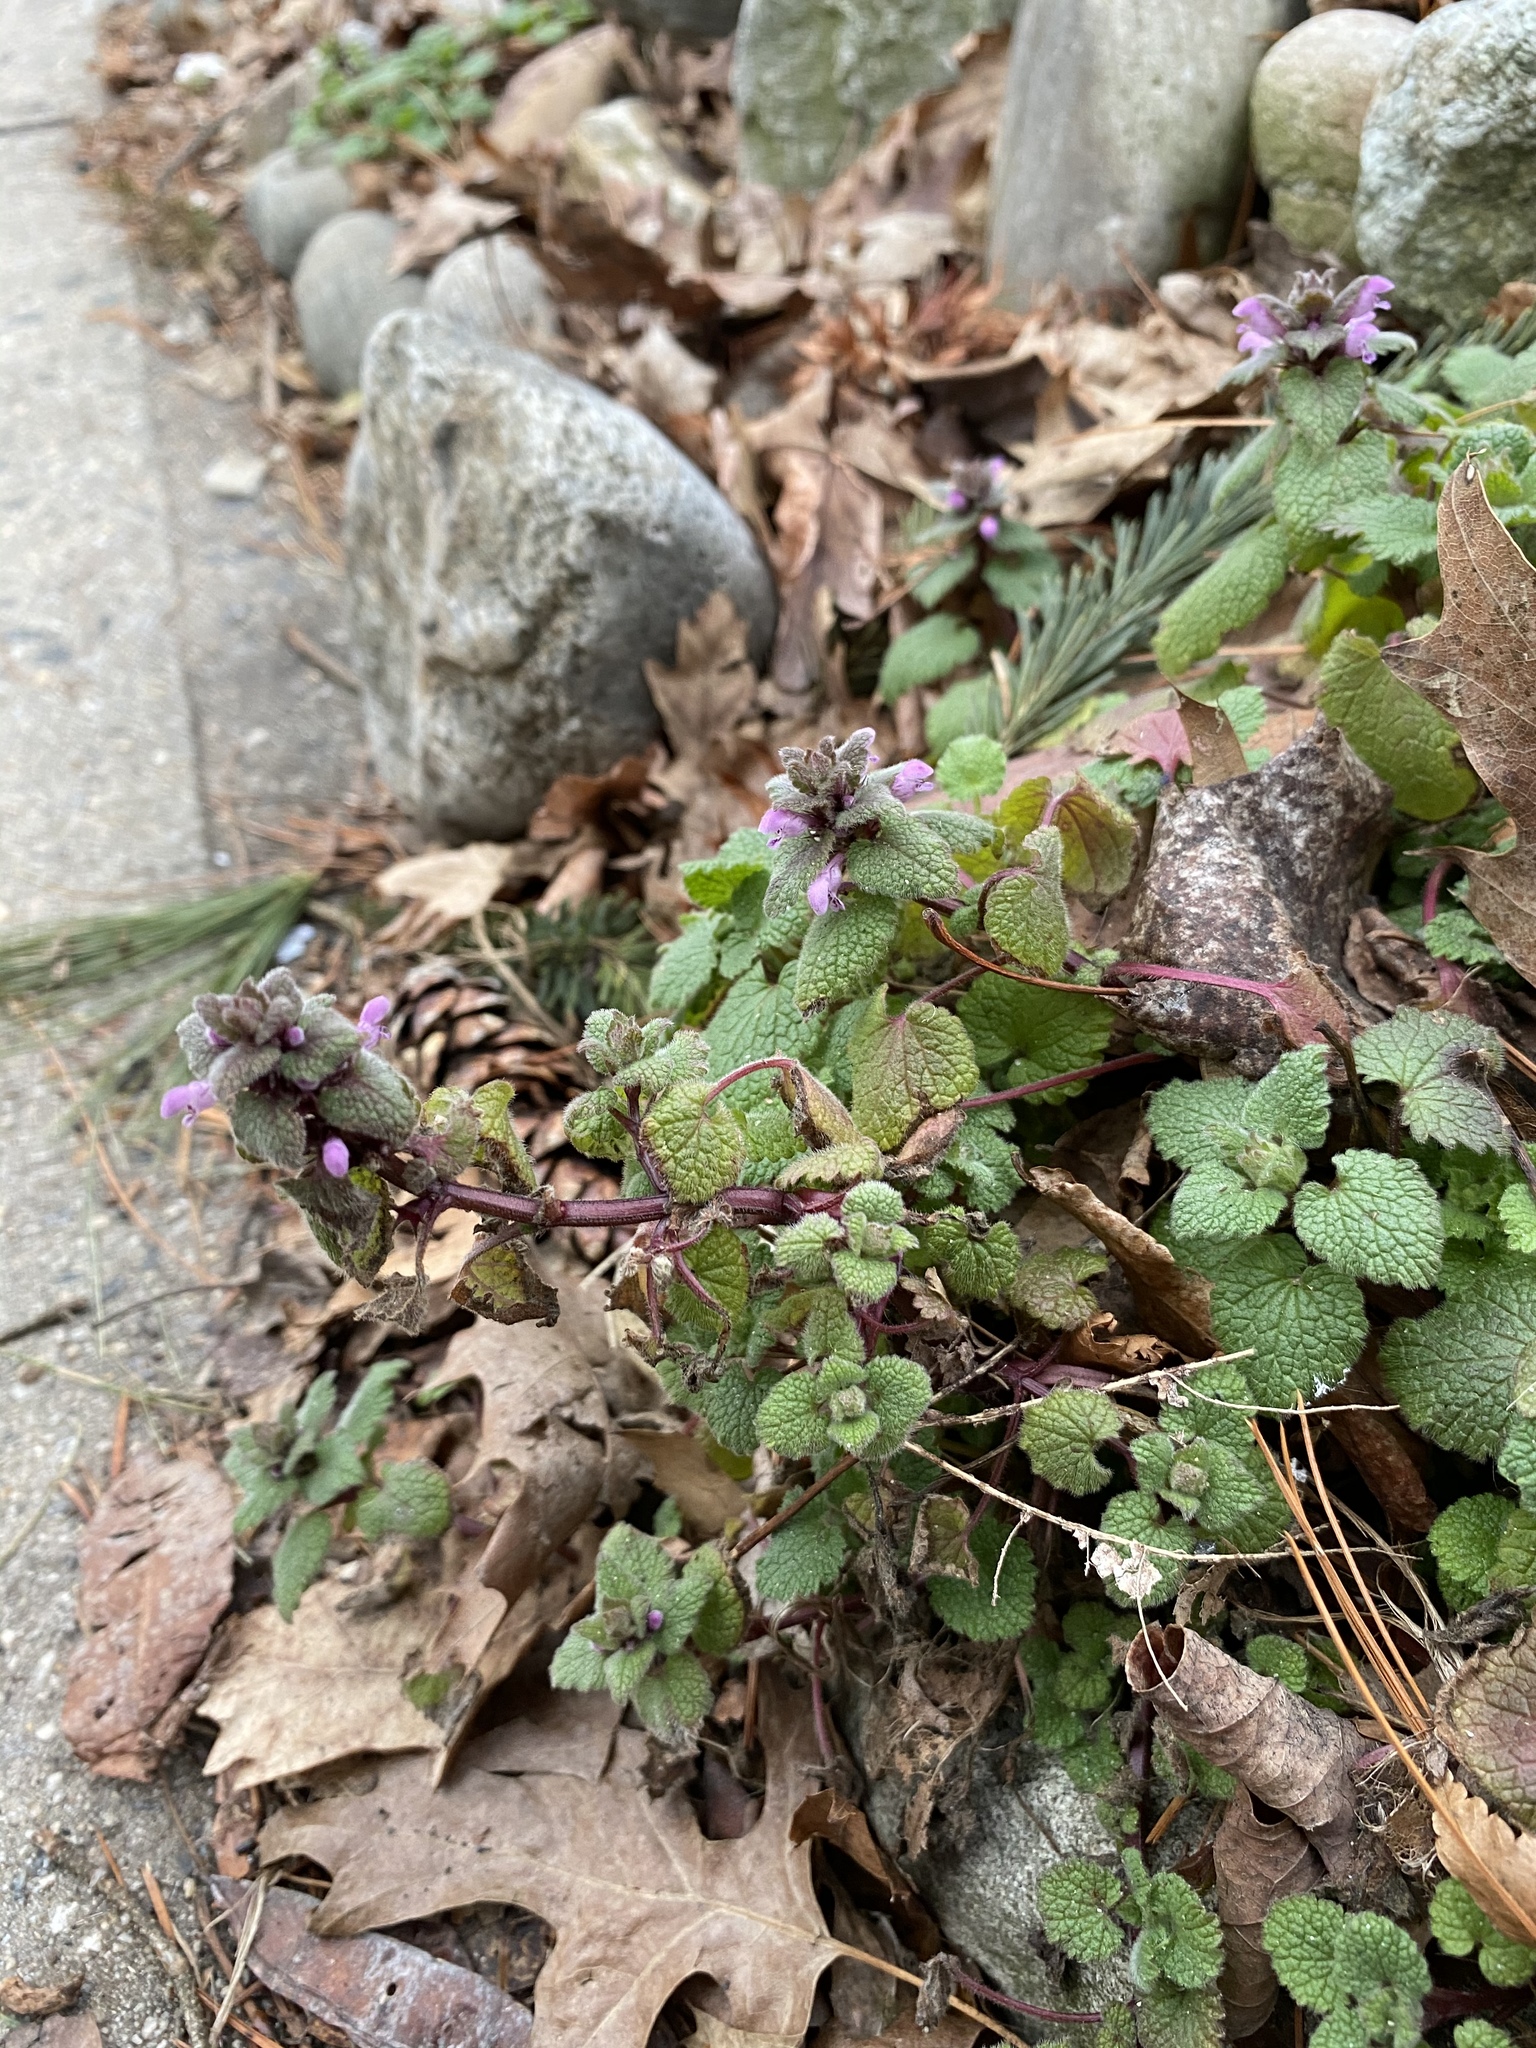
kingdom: Plantae
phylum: Tracheophyta
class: Magnoliopsida
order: Lamiales
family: Lamiaceae
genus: Lamium
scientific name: Lamium purpureum
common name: Red dead-nettle
